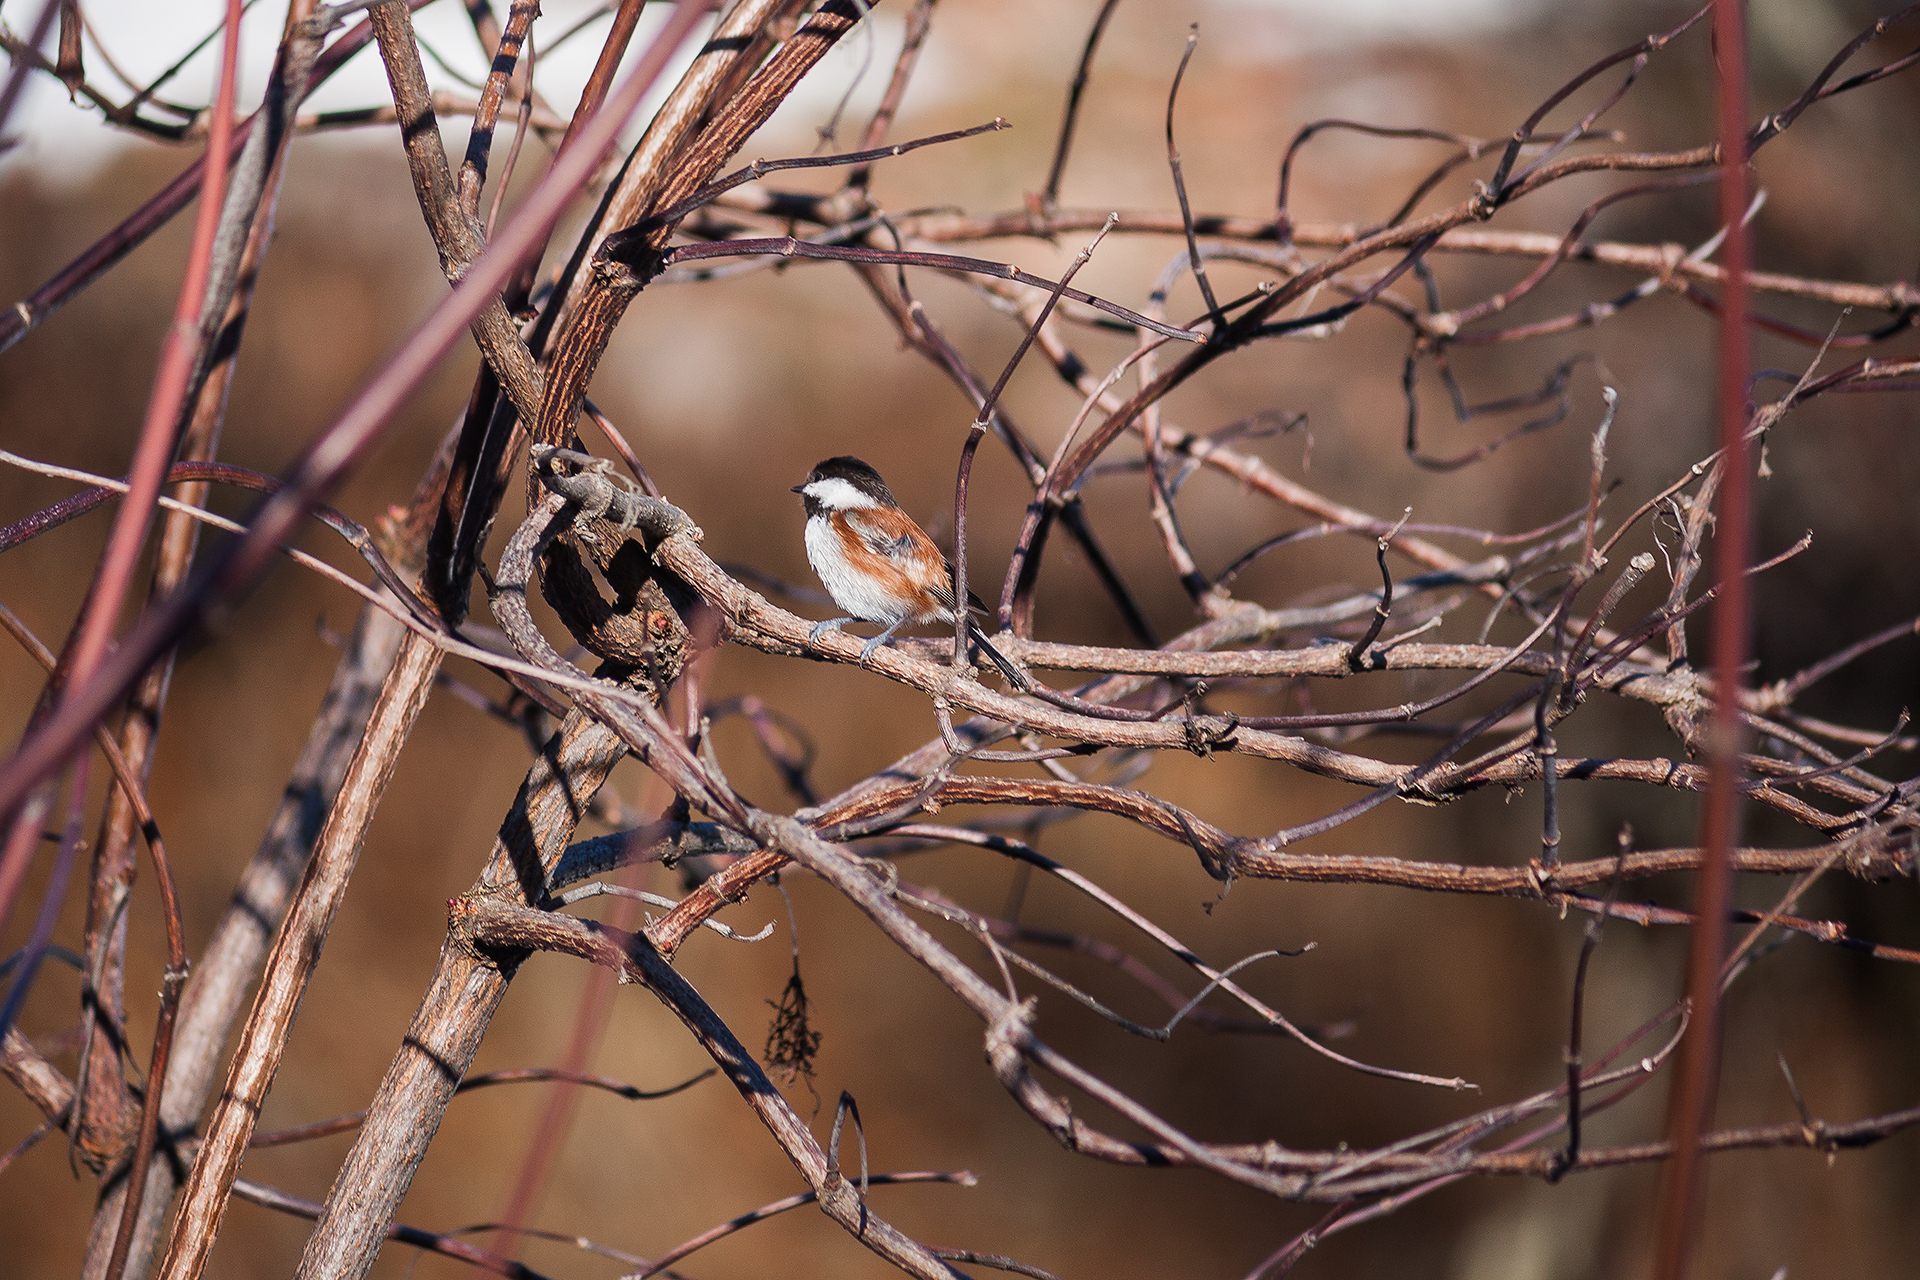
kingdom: Animalia
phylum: Chordata
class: Aves
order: Passeriformes
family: Paridae
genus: Poecile
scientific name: Poecile rufescens
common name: Chestnut-backed chickadee
